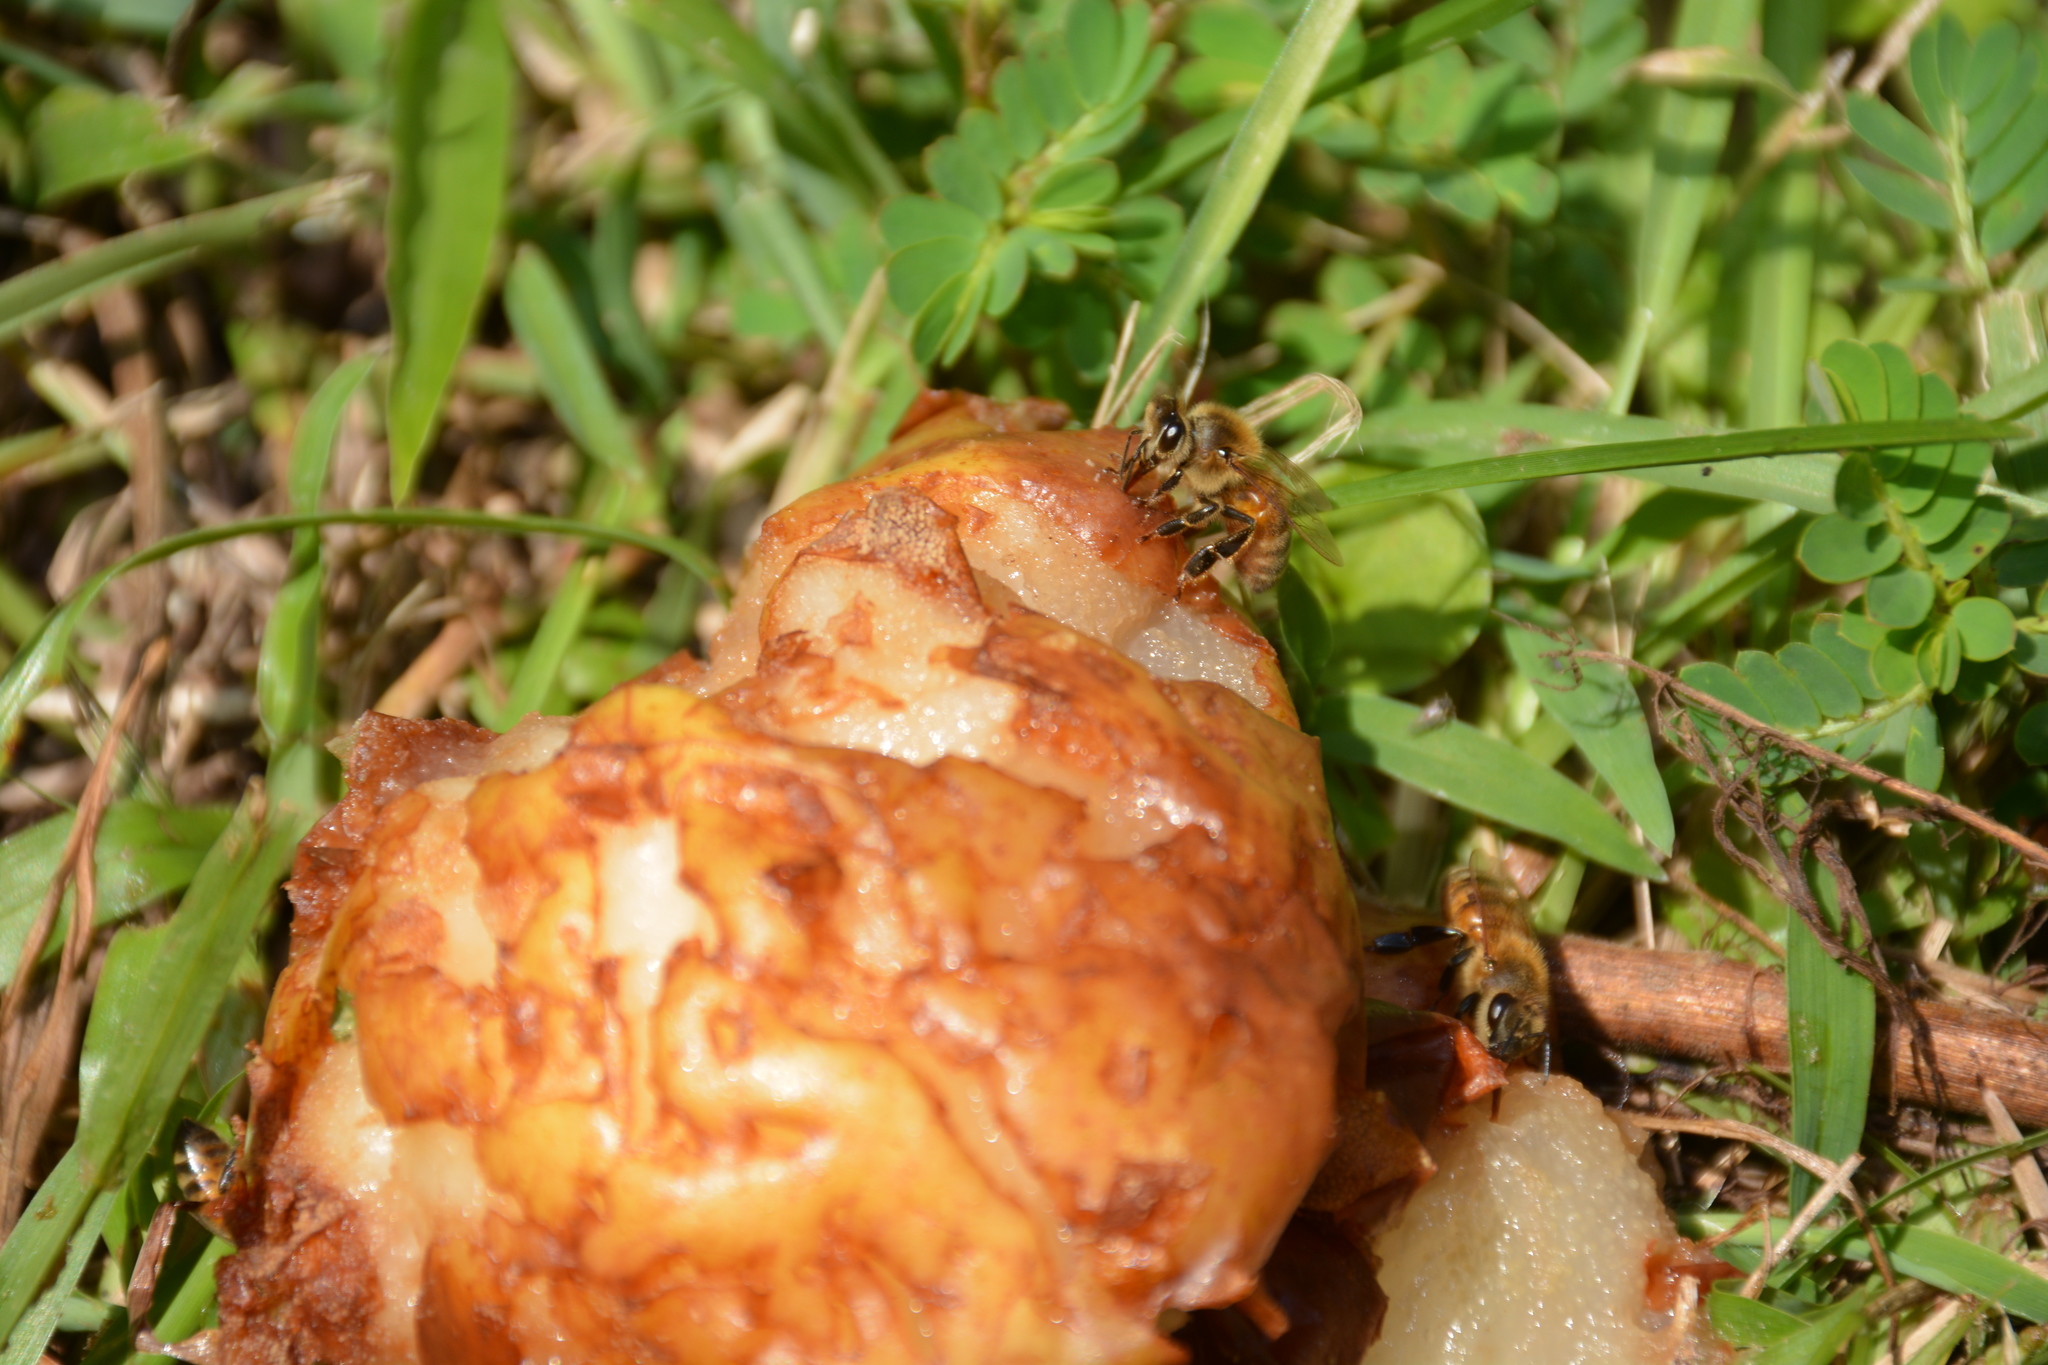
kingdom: Animalia
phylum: Arthropoda
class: Insecta
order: Hymenoptera
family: Apidae
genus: Apis
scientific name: Apis mellifera
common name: Honey bee
